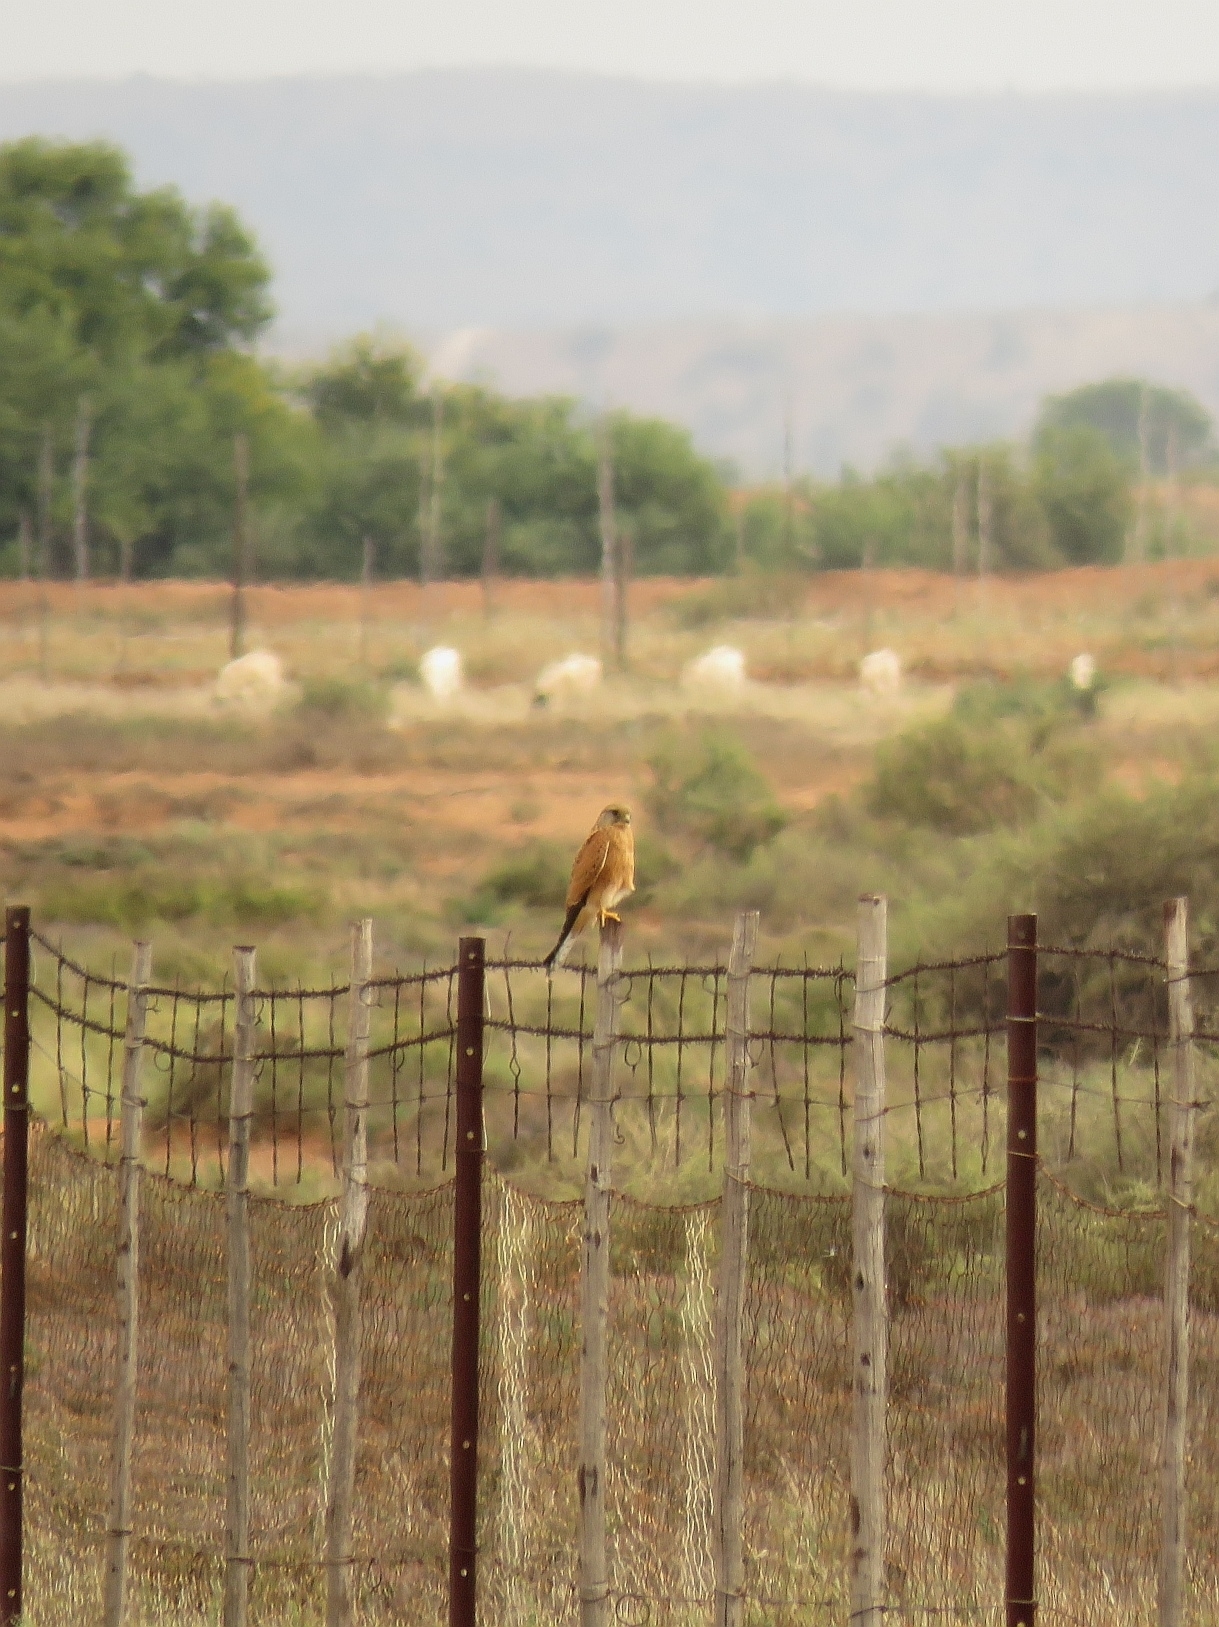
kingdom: Animalia
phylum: Chordata
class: Aves
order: Falconiformes
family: Falconidae
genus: Falco
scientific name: Falco rupicolus
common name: Rock kestrel
